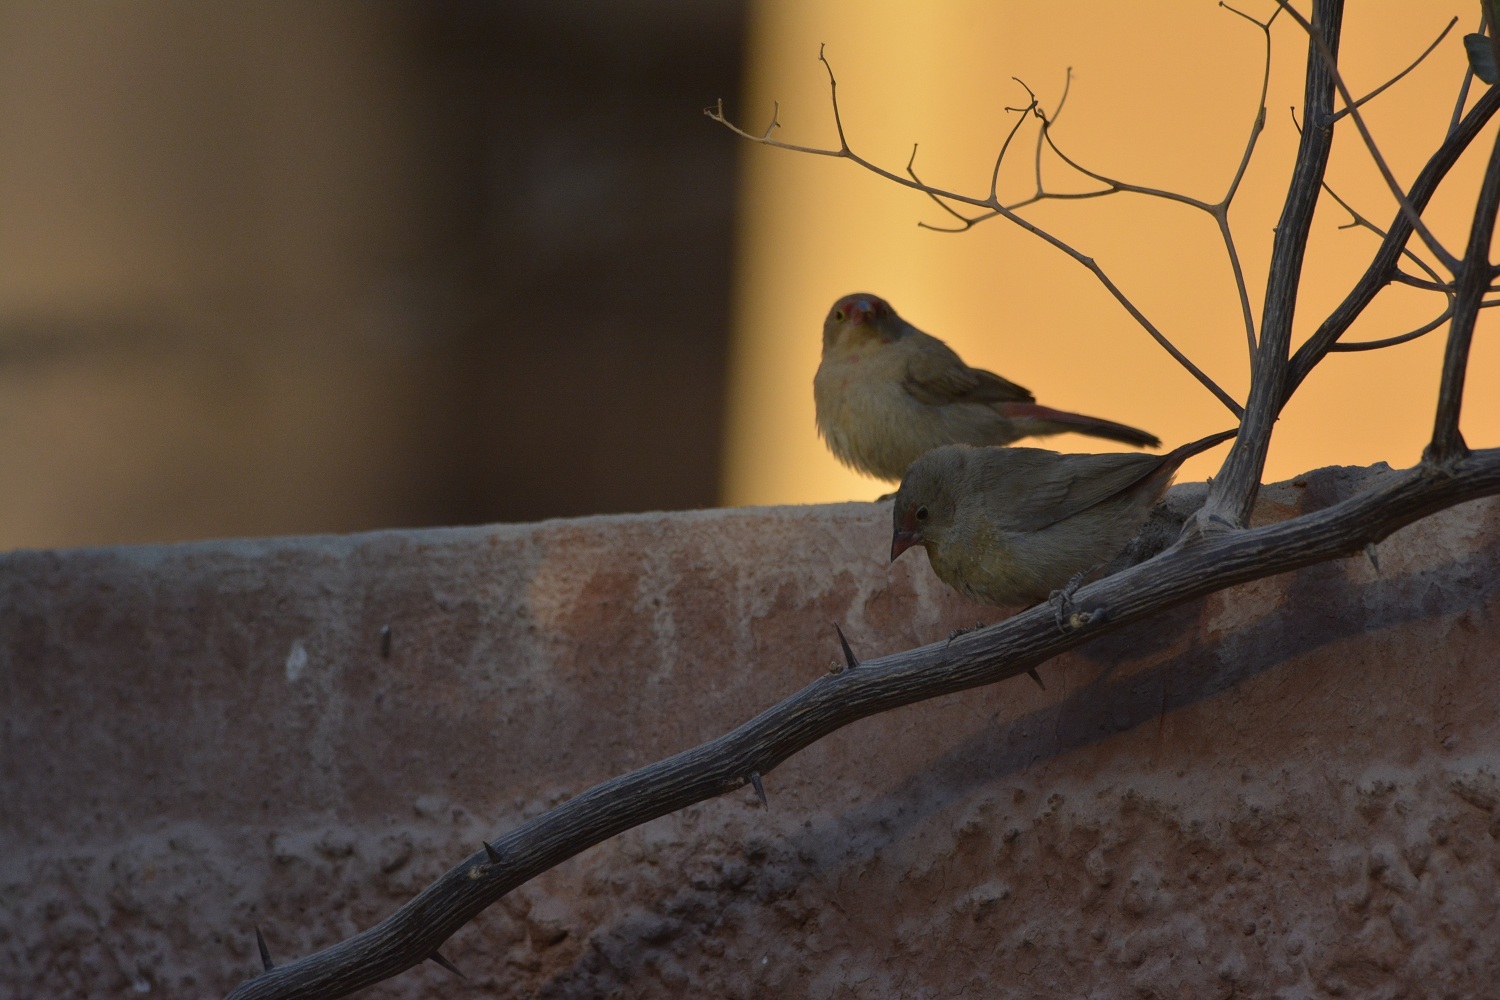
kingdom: Animalia
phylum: Chordata
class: Aves
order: Passeriformes
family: Estrildidae
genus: Lagonosticta
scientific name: Lagonosticta senegala
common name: Red-billed firefinch
